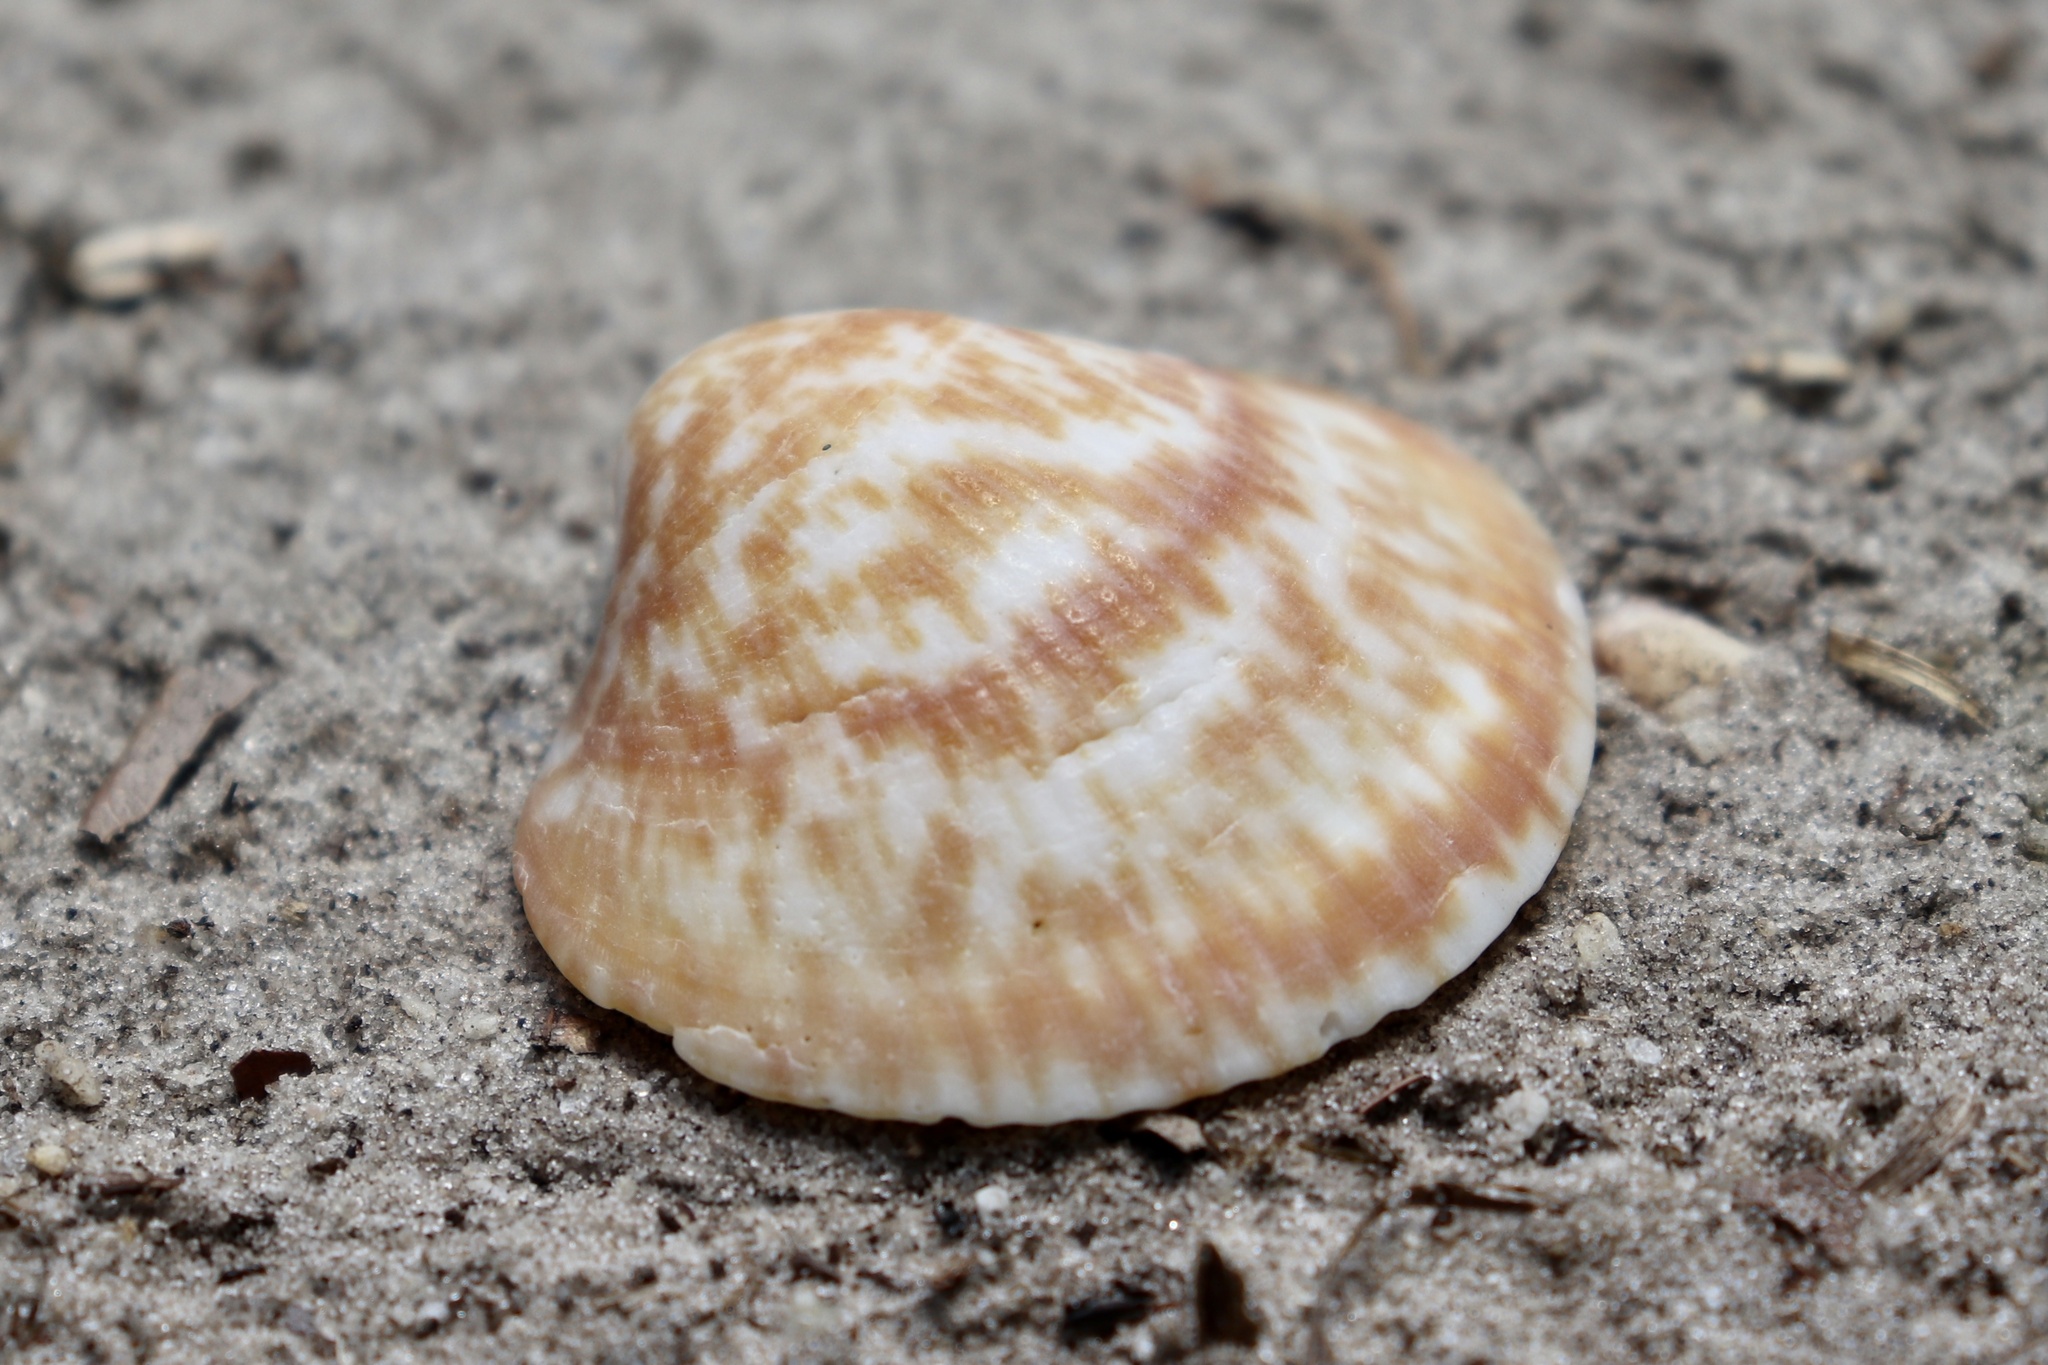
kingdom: Animalia
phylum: Mollusca
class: Bivalvia
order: Arcida
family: Glycymerididae
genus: Glycymeris
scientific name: Glycymeris americana
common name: American bittersweet
